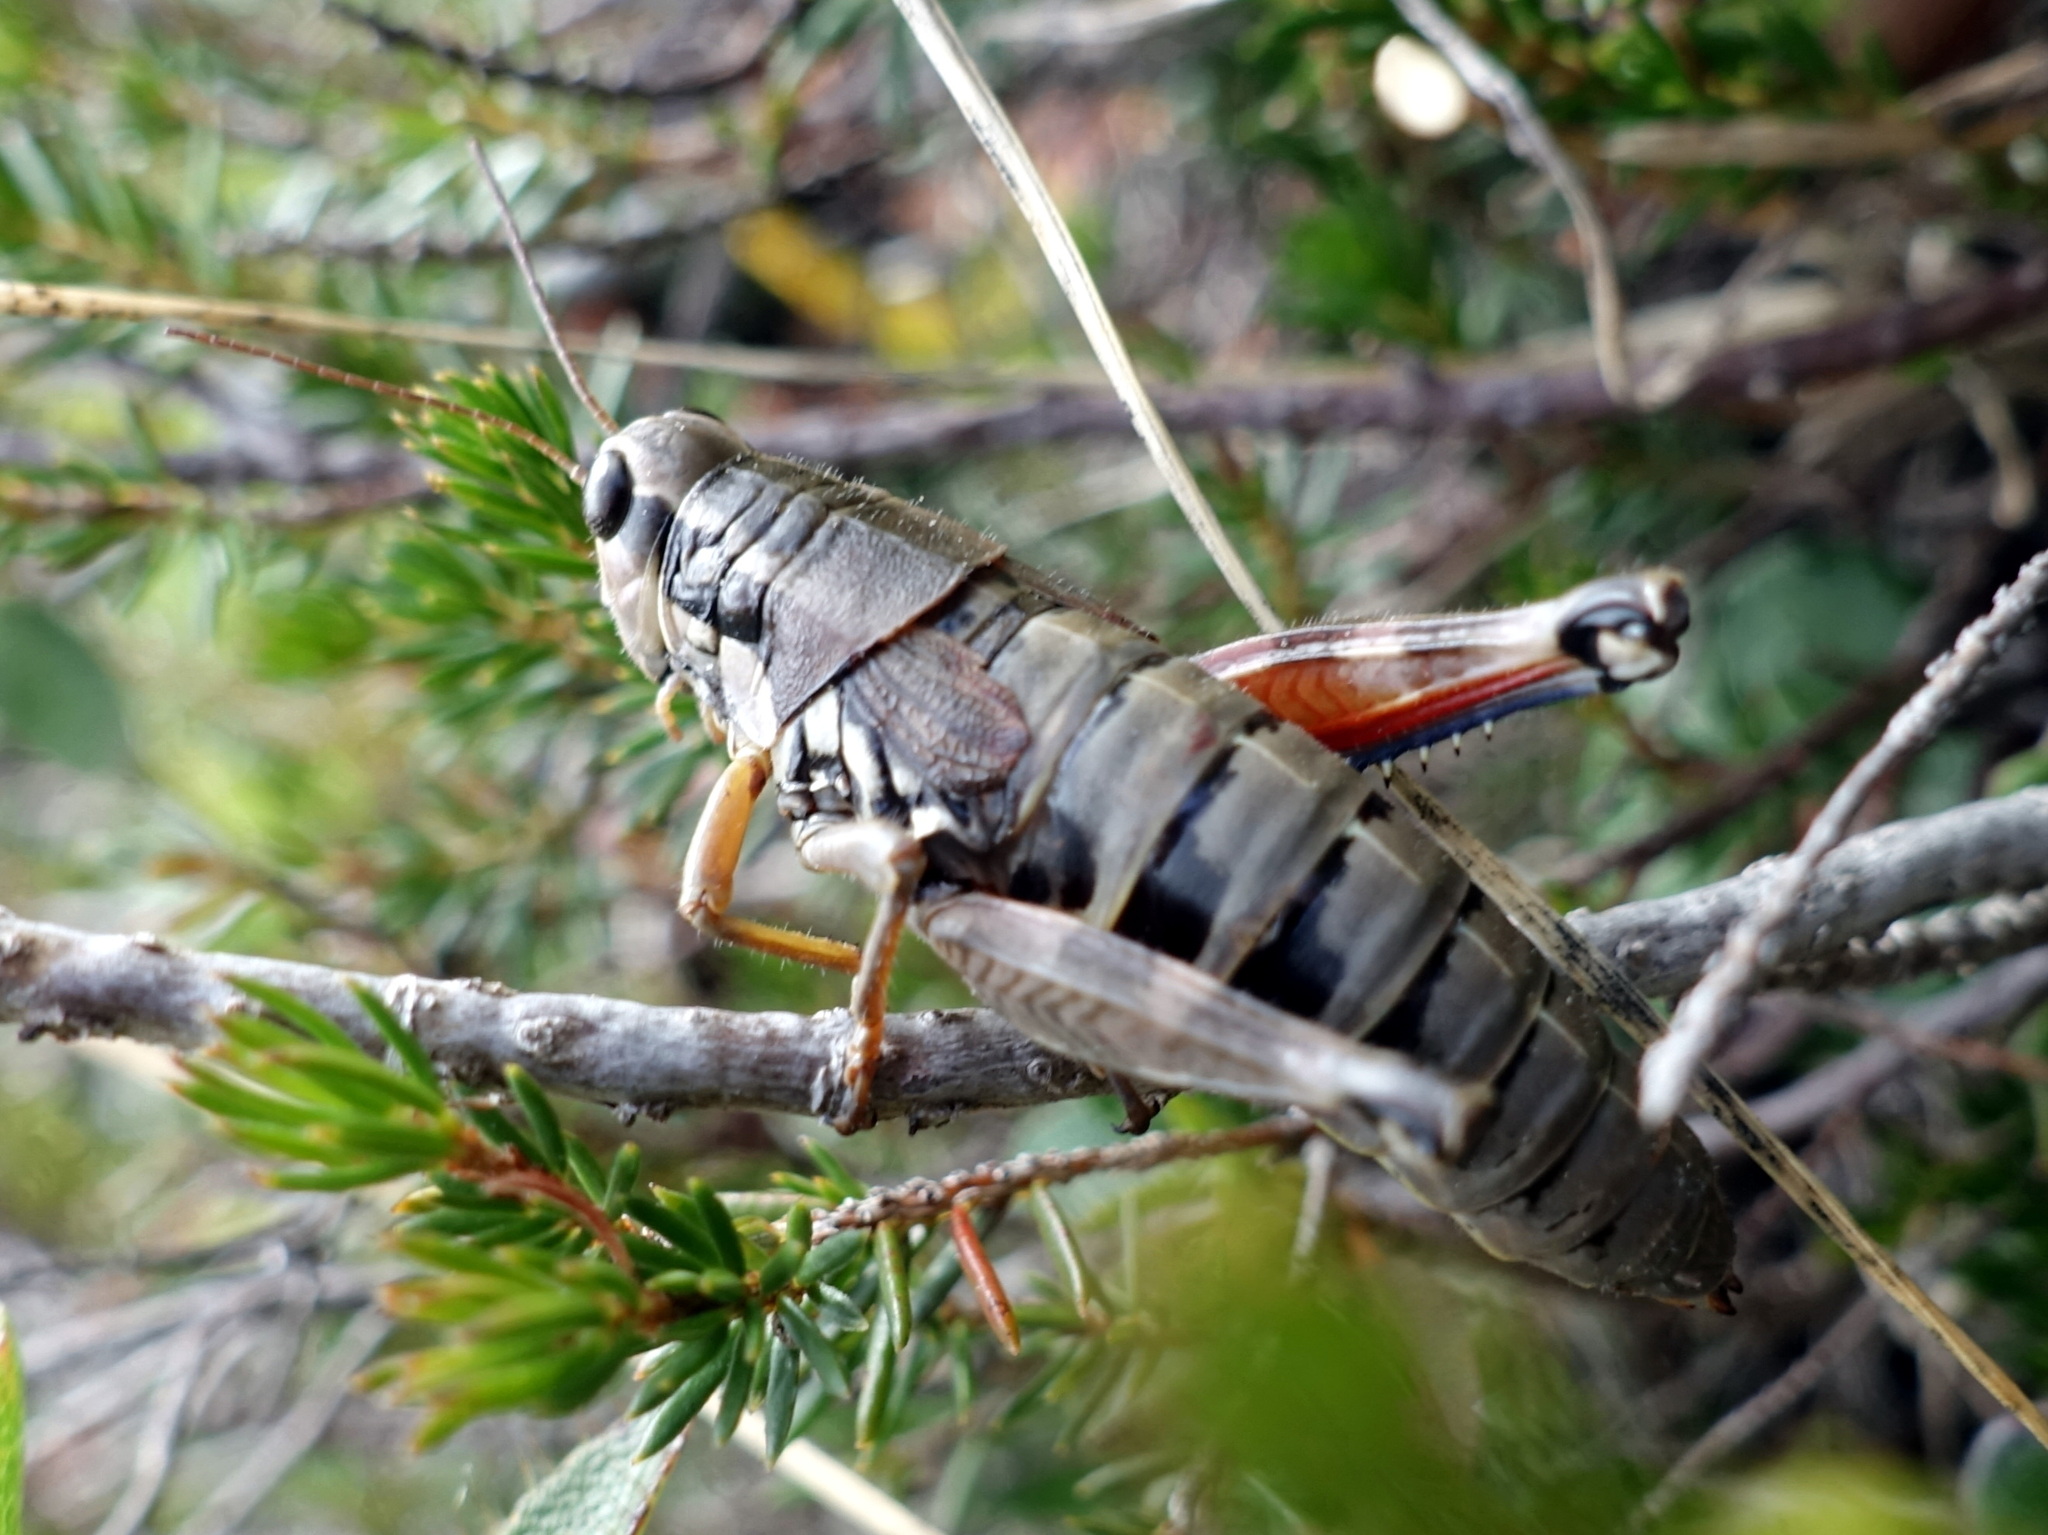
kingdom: Animalia
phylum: Arthropoda
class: Insecta
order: Orthoptera
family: Acrididae
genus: Podisma
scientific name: Podisma pedestris
